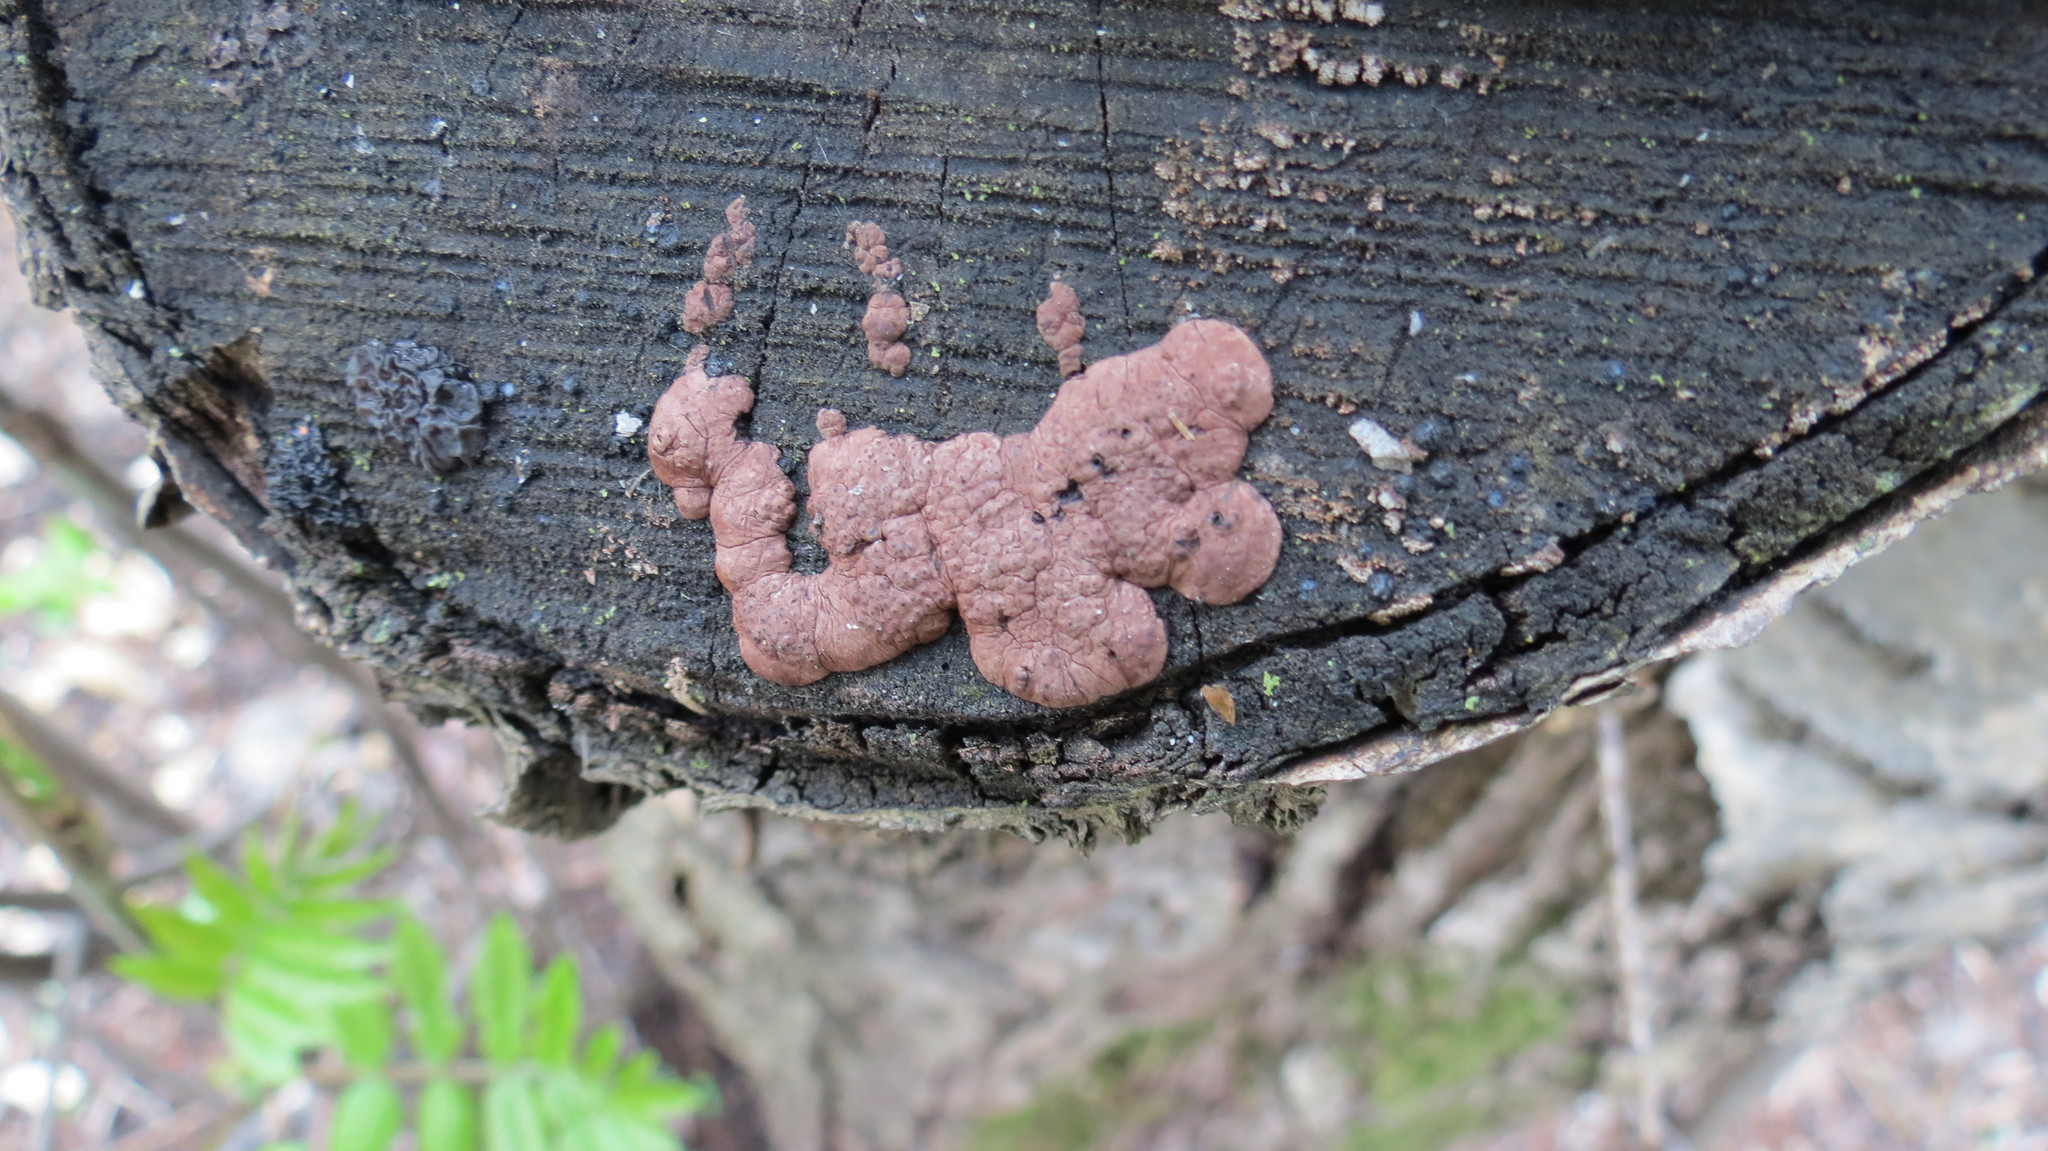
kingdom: Fungi
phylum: Ascomycota
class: Sordariomycetes
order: Xylariales
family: Hypoxylaceae
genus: Jackrogersella
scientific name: Jackrogersella multiformis
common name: Birch woodwart
